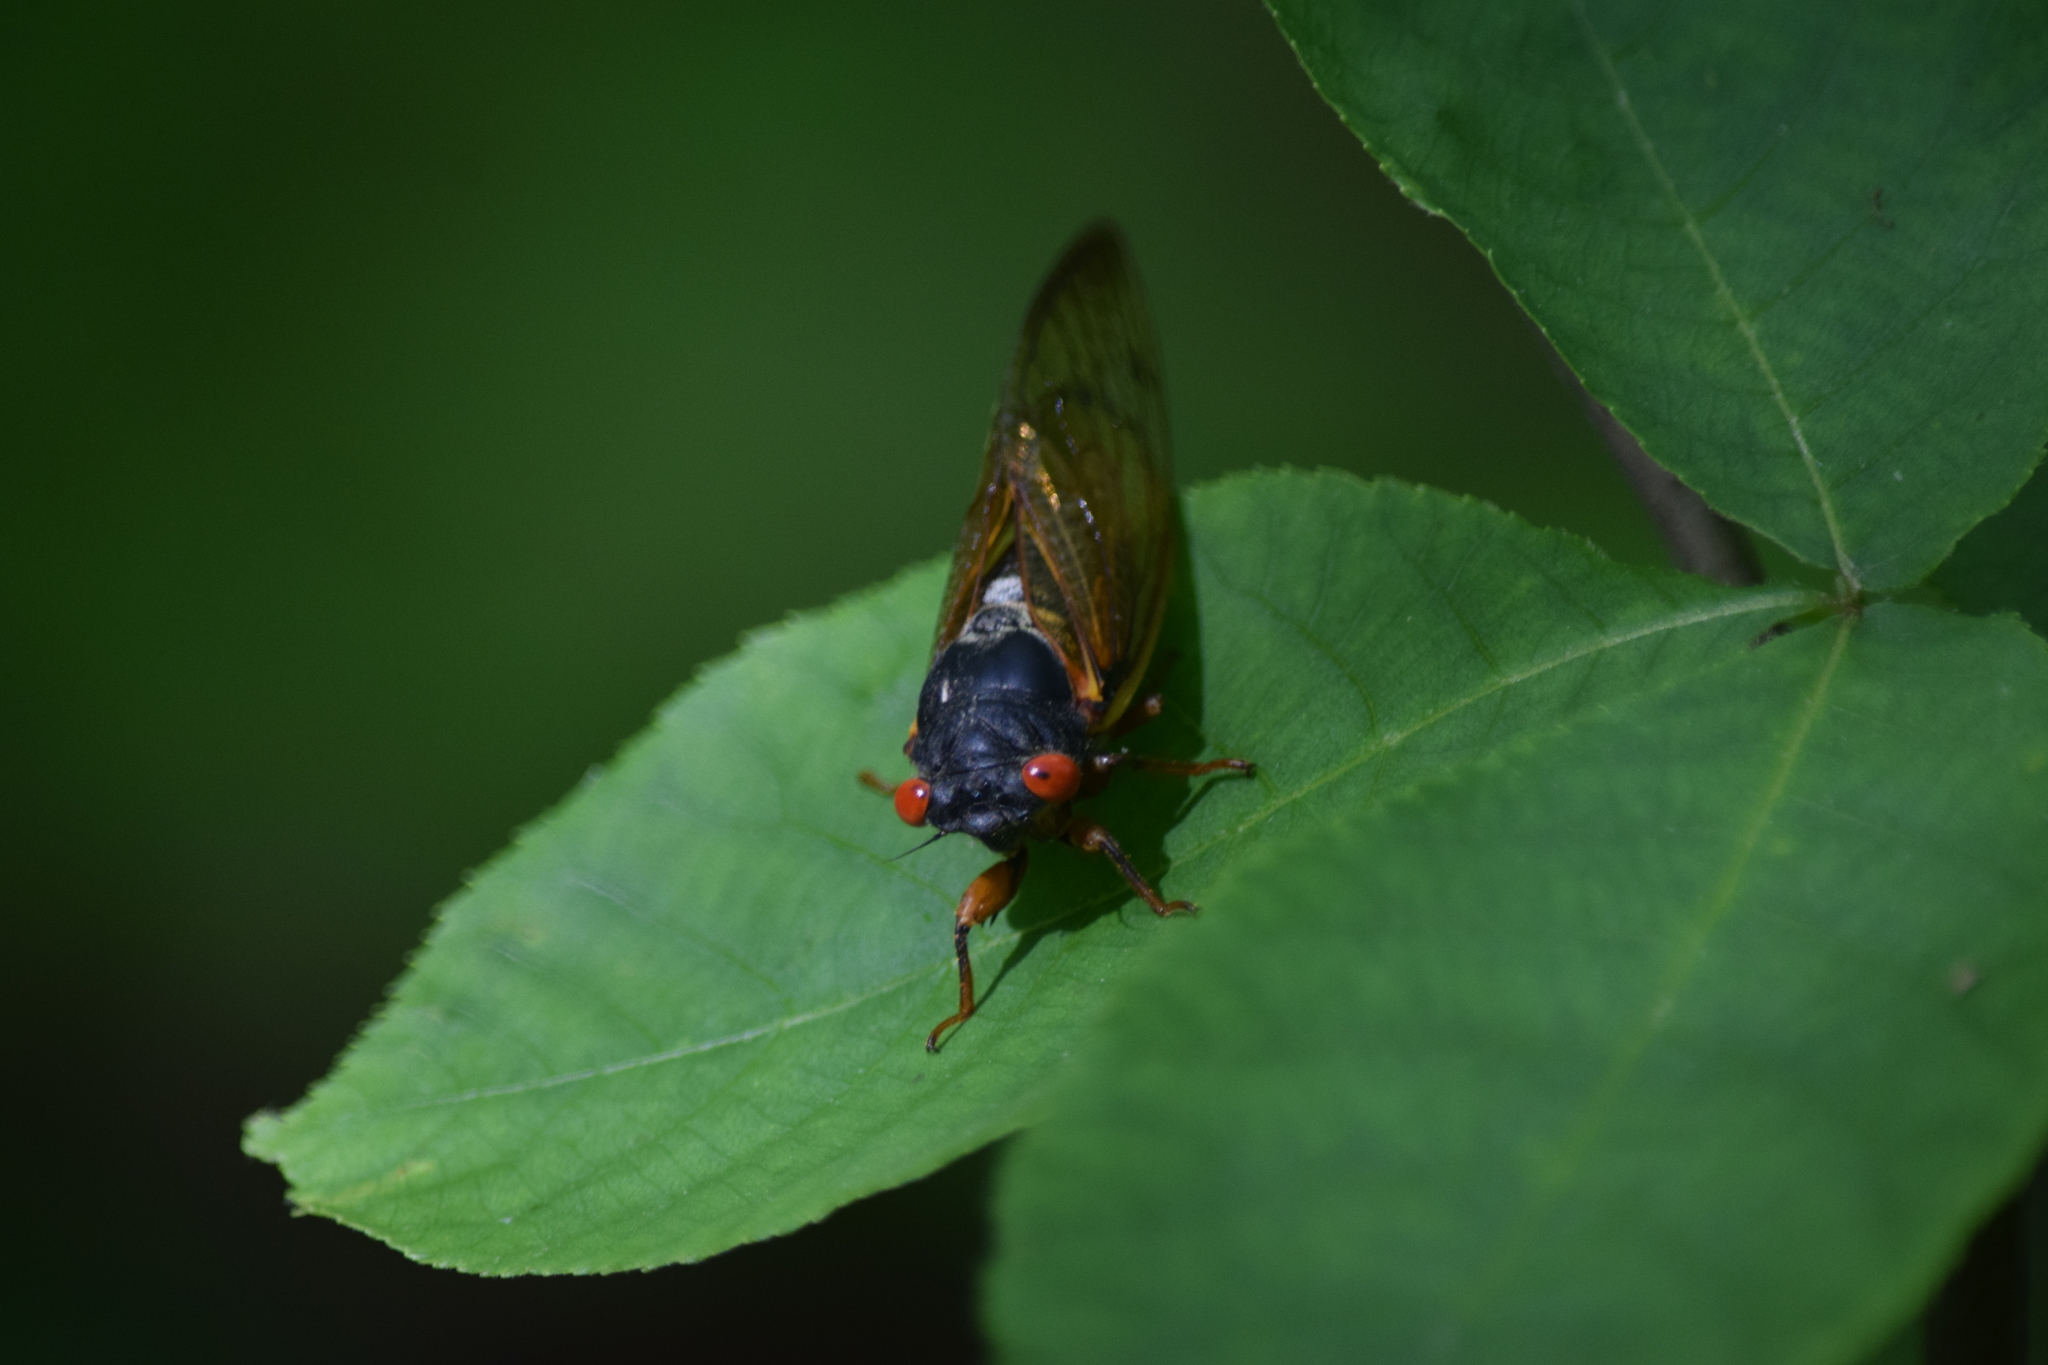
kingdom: Animalia
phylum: Arthropoda
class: Insecta
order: Hemiptera
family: Cicadidae
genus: Magicicada
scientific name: Magicicada
